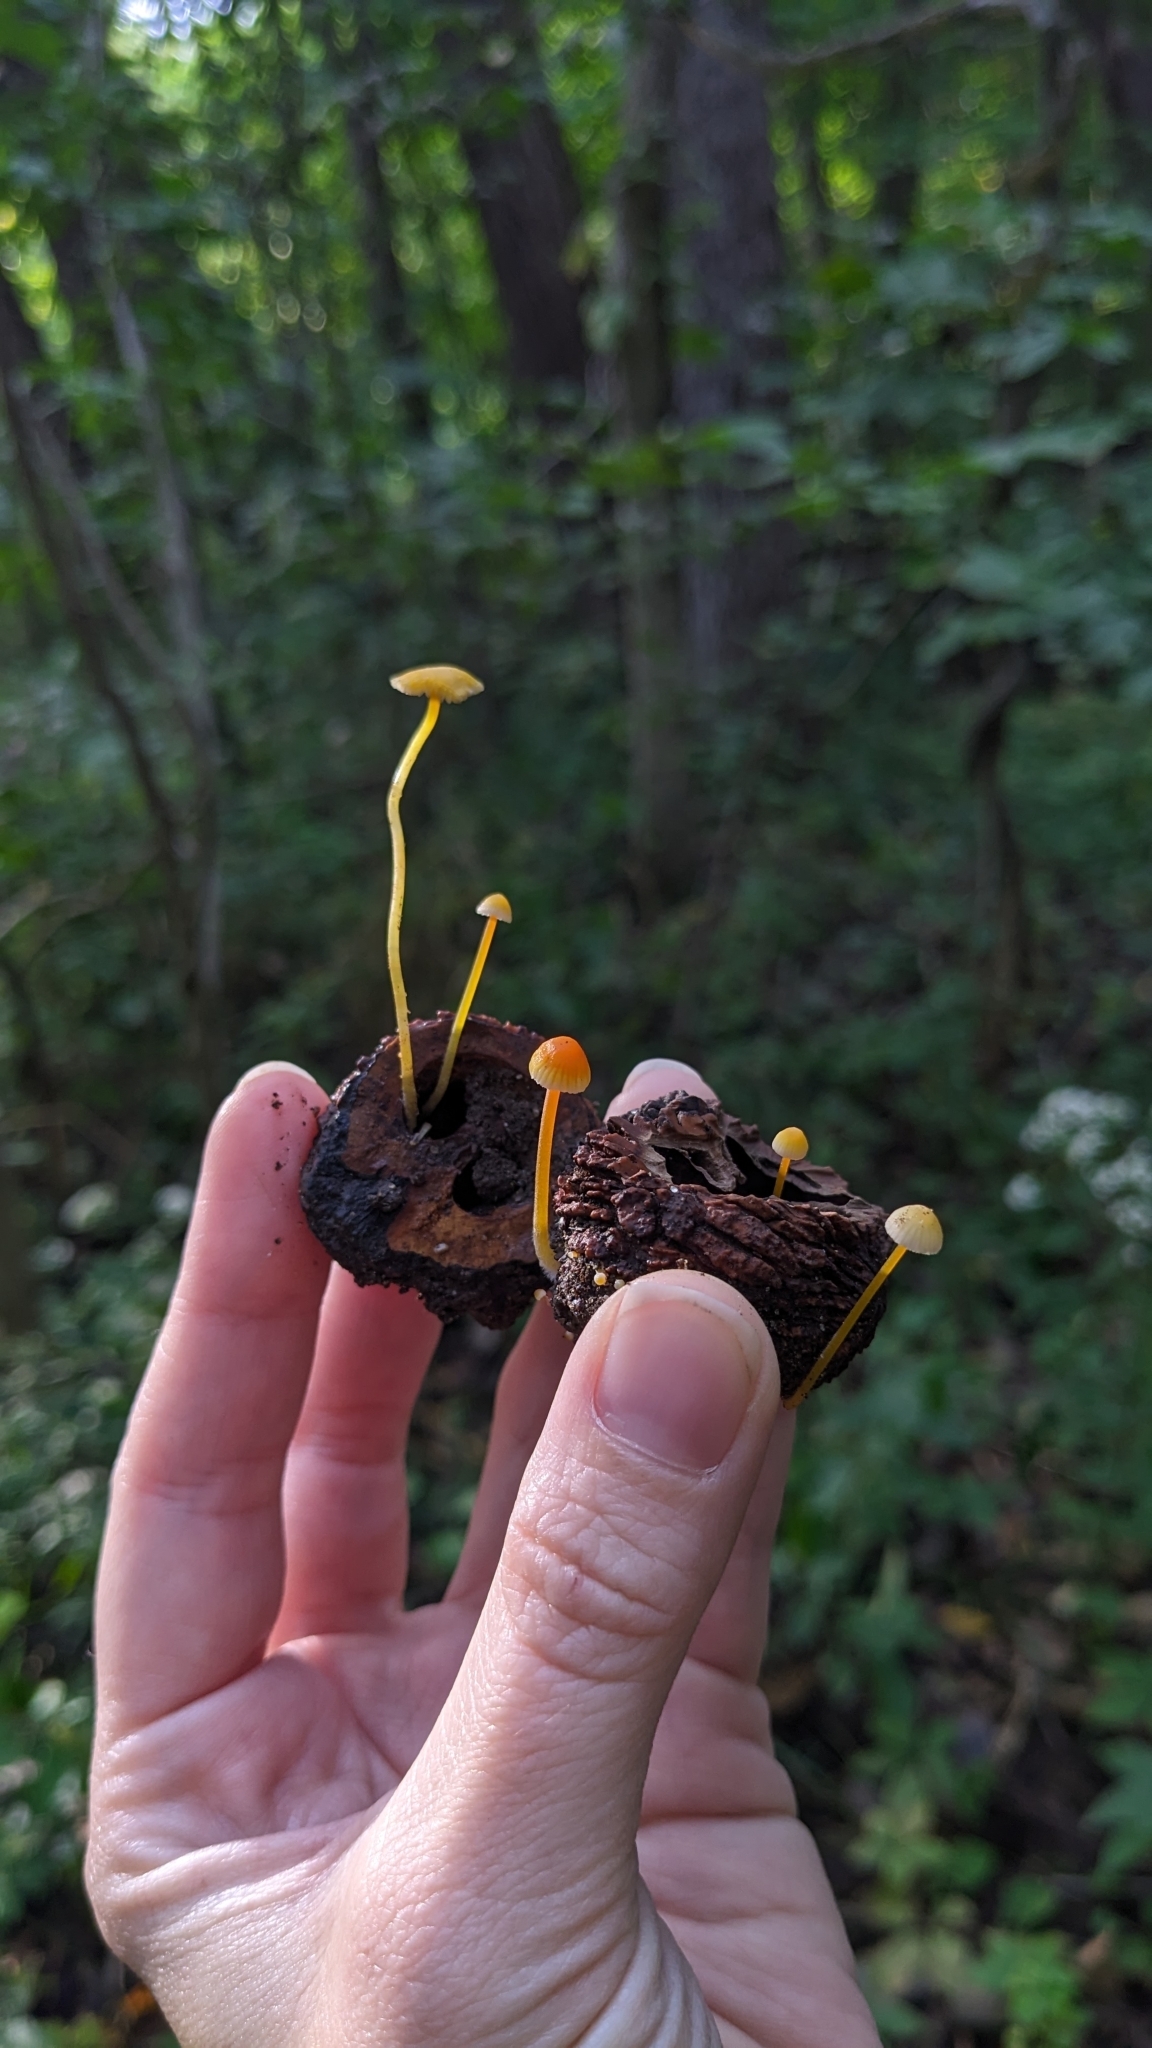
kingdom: Fungi
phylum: Basidiomycota
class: Agaricomycetes
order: Agaricales
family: Mycenaceae
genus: Mycena
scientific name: Mycena crocea
